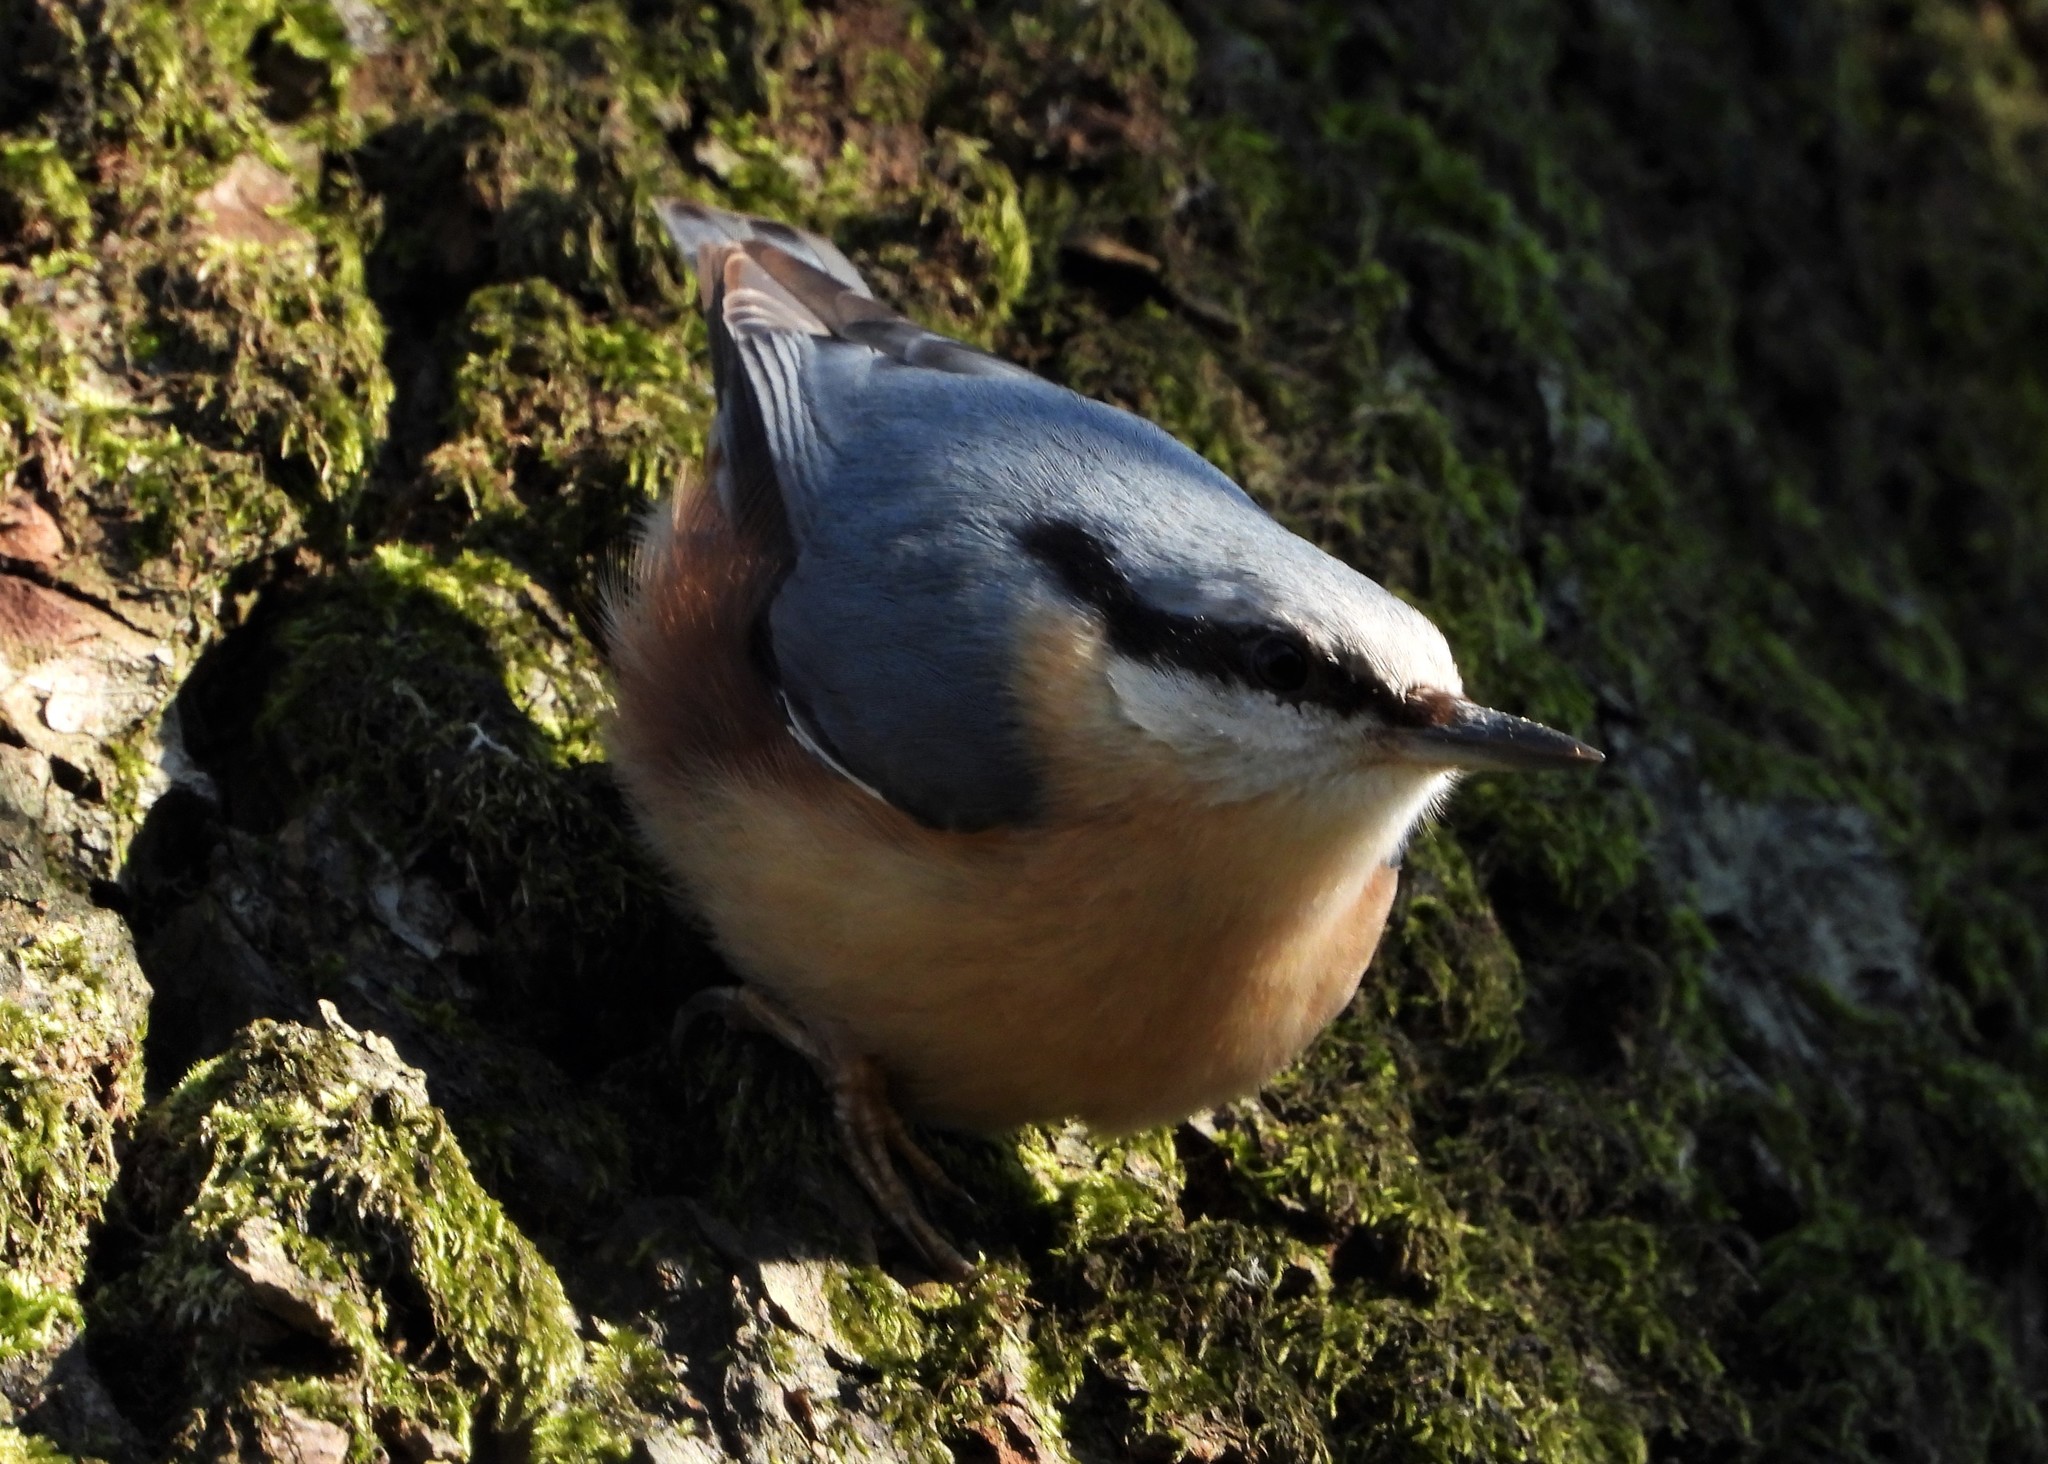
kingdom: Animalia
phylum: Chordata
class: Aves
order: Passeriformes
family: Sittidae
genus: Sitta
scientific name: Sitta europaea
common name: Eurasian nuthatch
